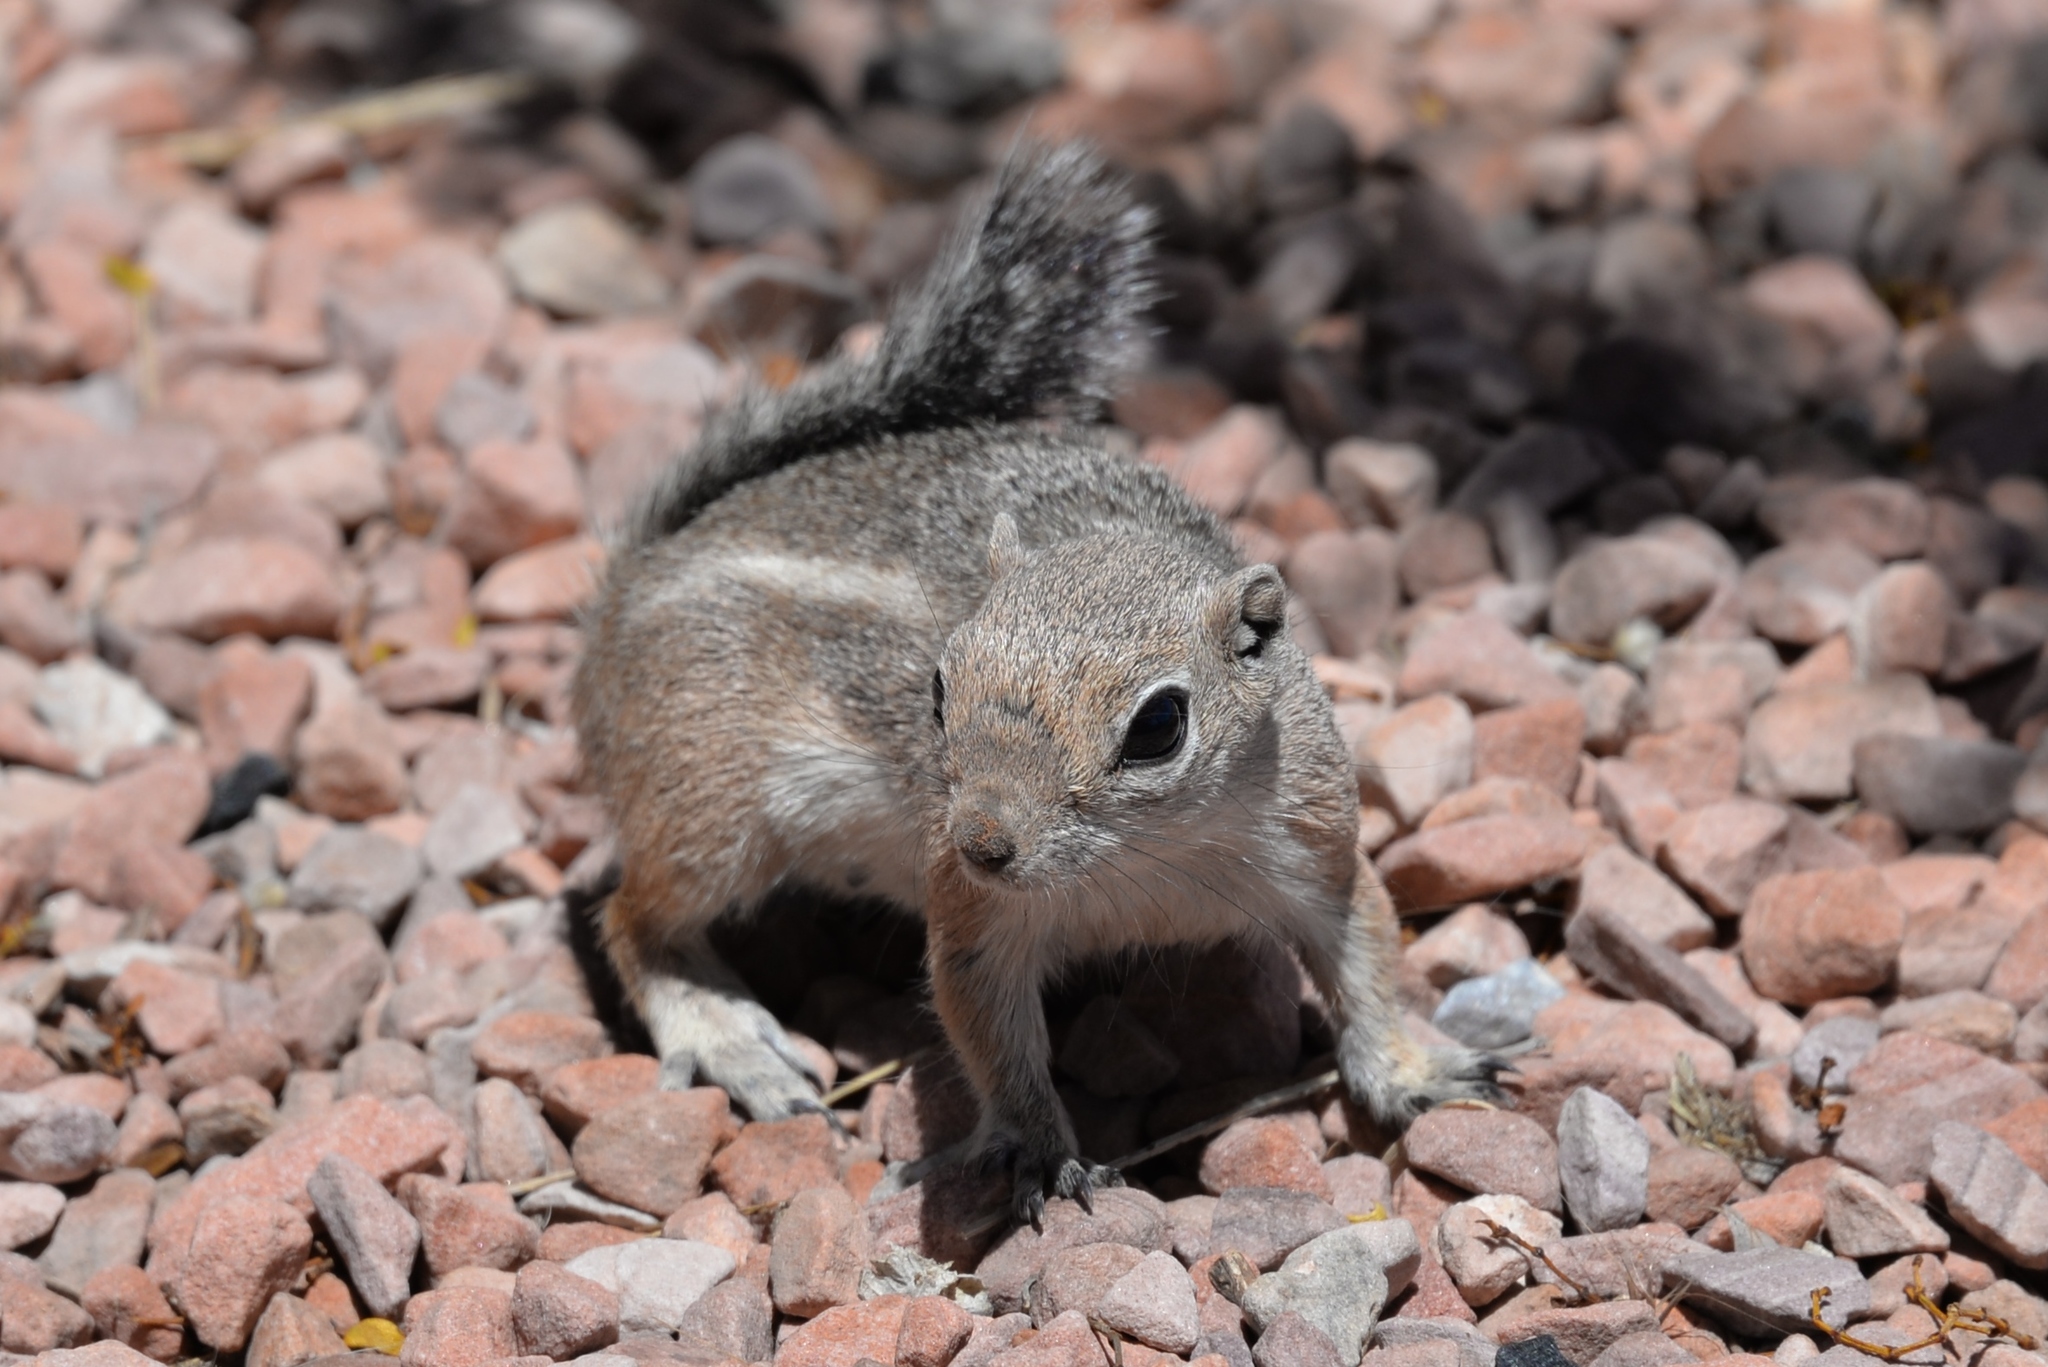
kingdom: Animalia
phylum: Chordata
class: Mammalia
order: Rodentia
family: Sciuridae
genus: Ammospermophilus
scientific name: Ammospermophilus leucurus
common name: White-tailed antelope squirrel
